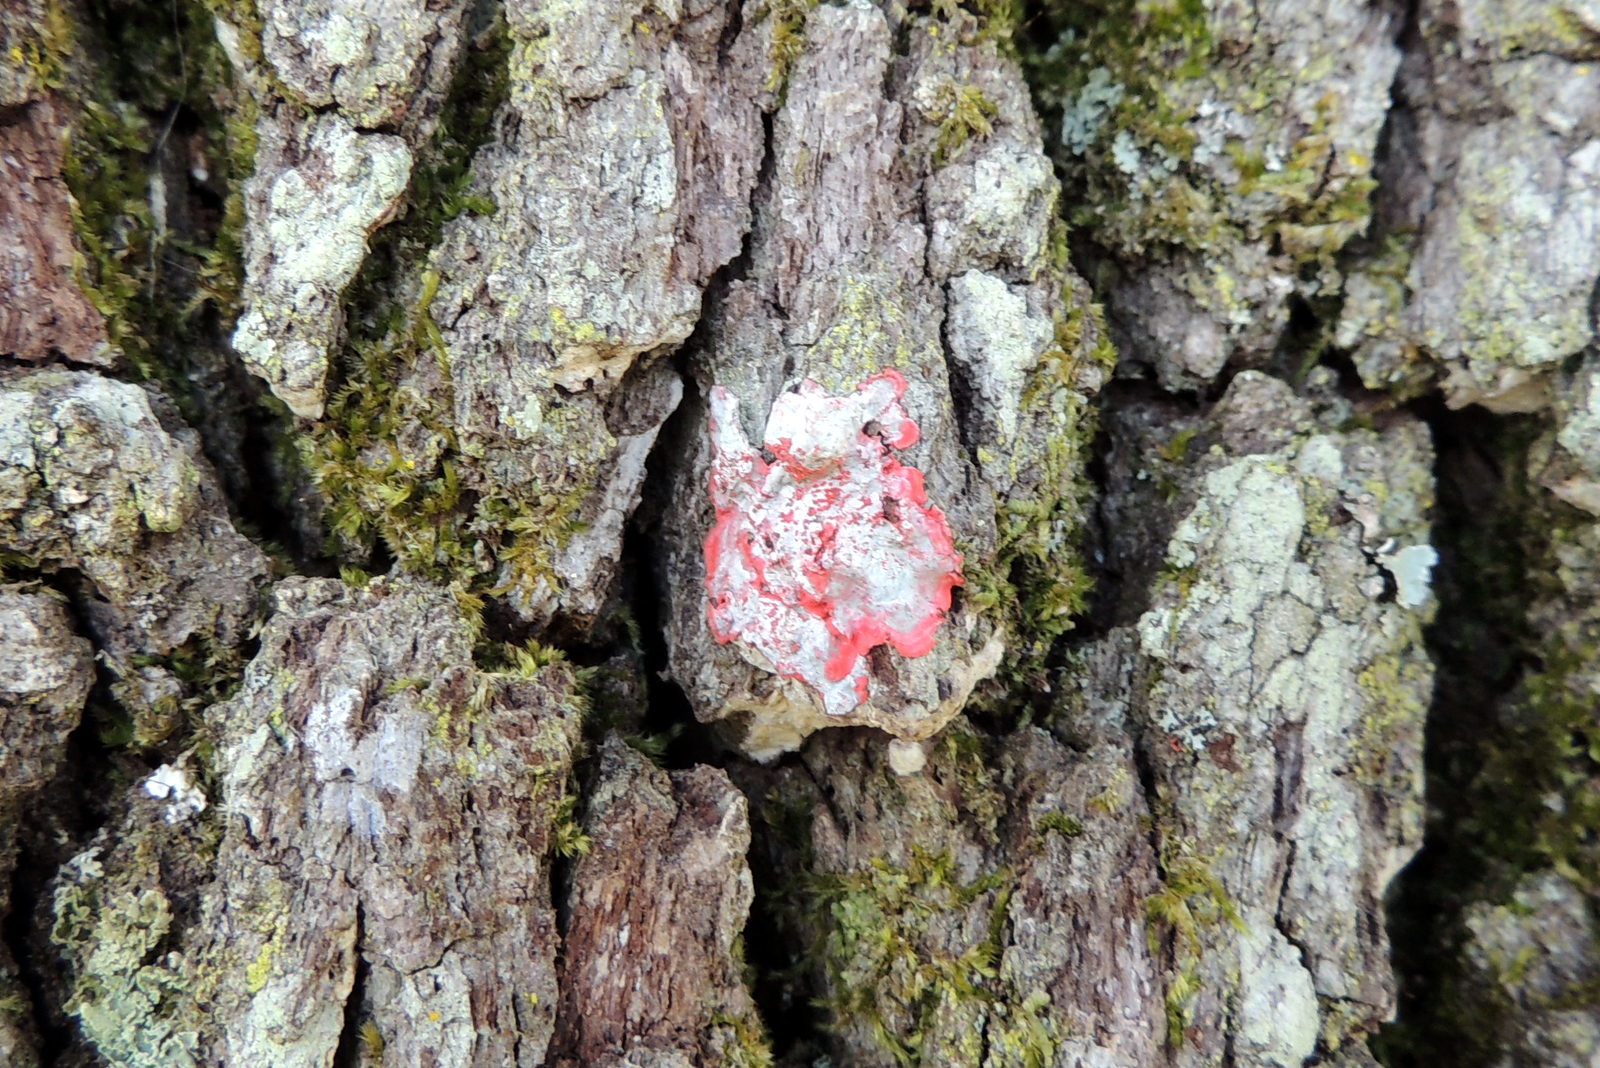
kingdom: Fungi
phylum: Ascomycota
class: Arthoniomycetes
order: Arthoniales
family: Arthoniaceae
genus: Herpothallon
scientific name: Herpothallon rubrocinctum
